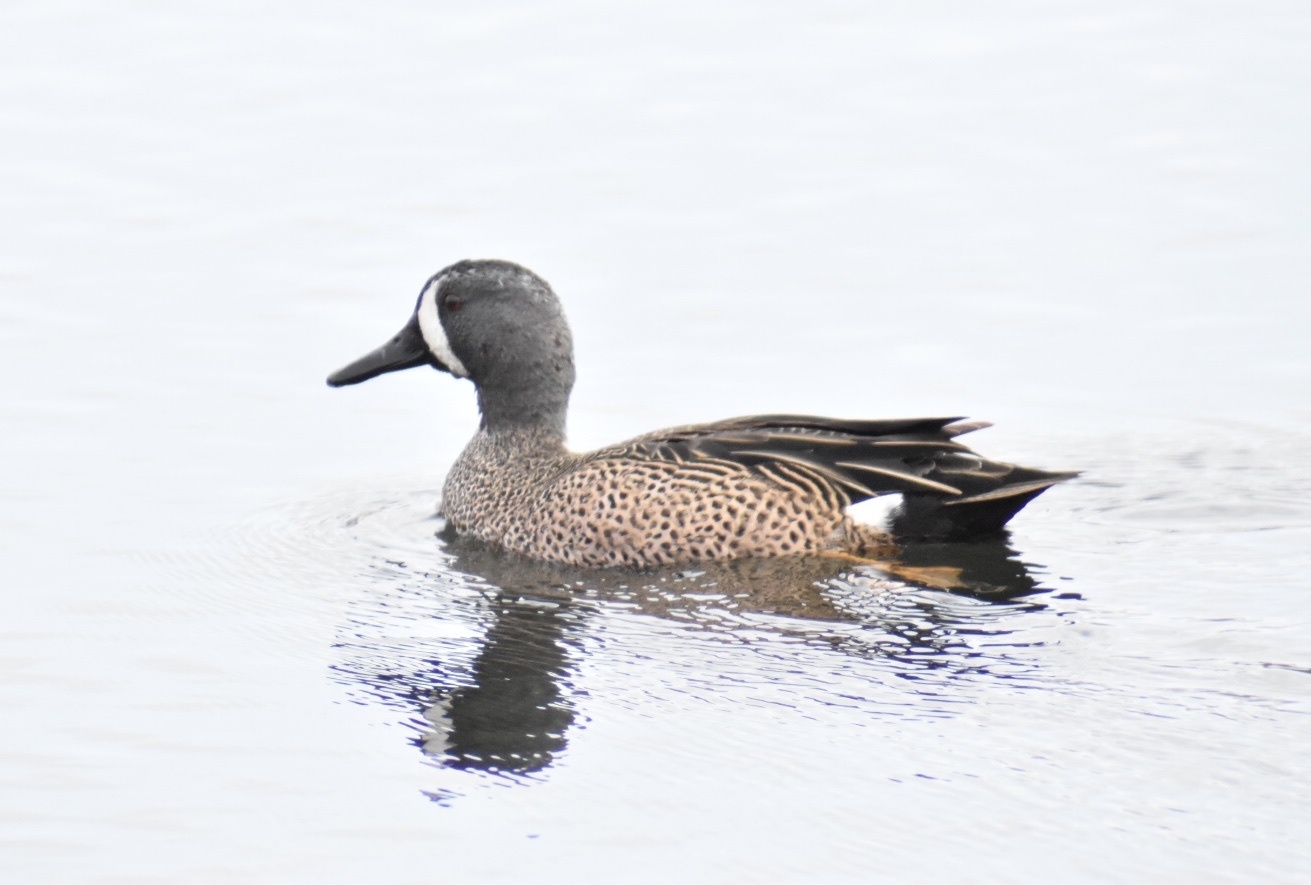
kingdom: Animalia
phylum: Chordata
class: Aves
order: Anseriformes
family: Anatidae
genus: Spatula
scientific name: Spatula discors
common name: Blue-winged teal
